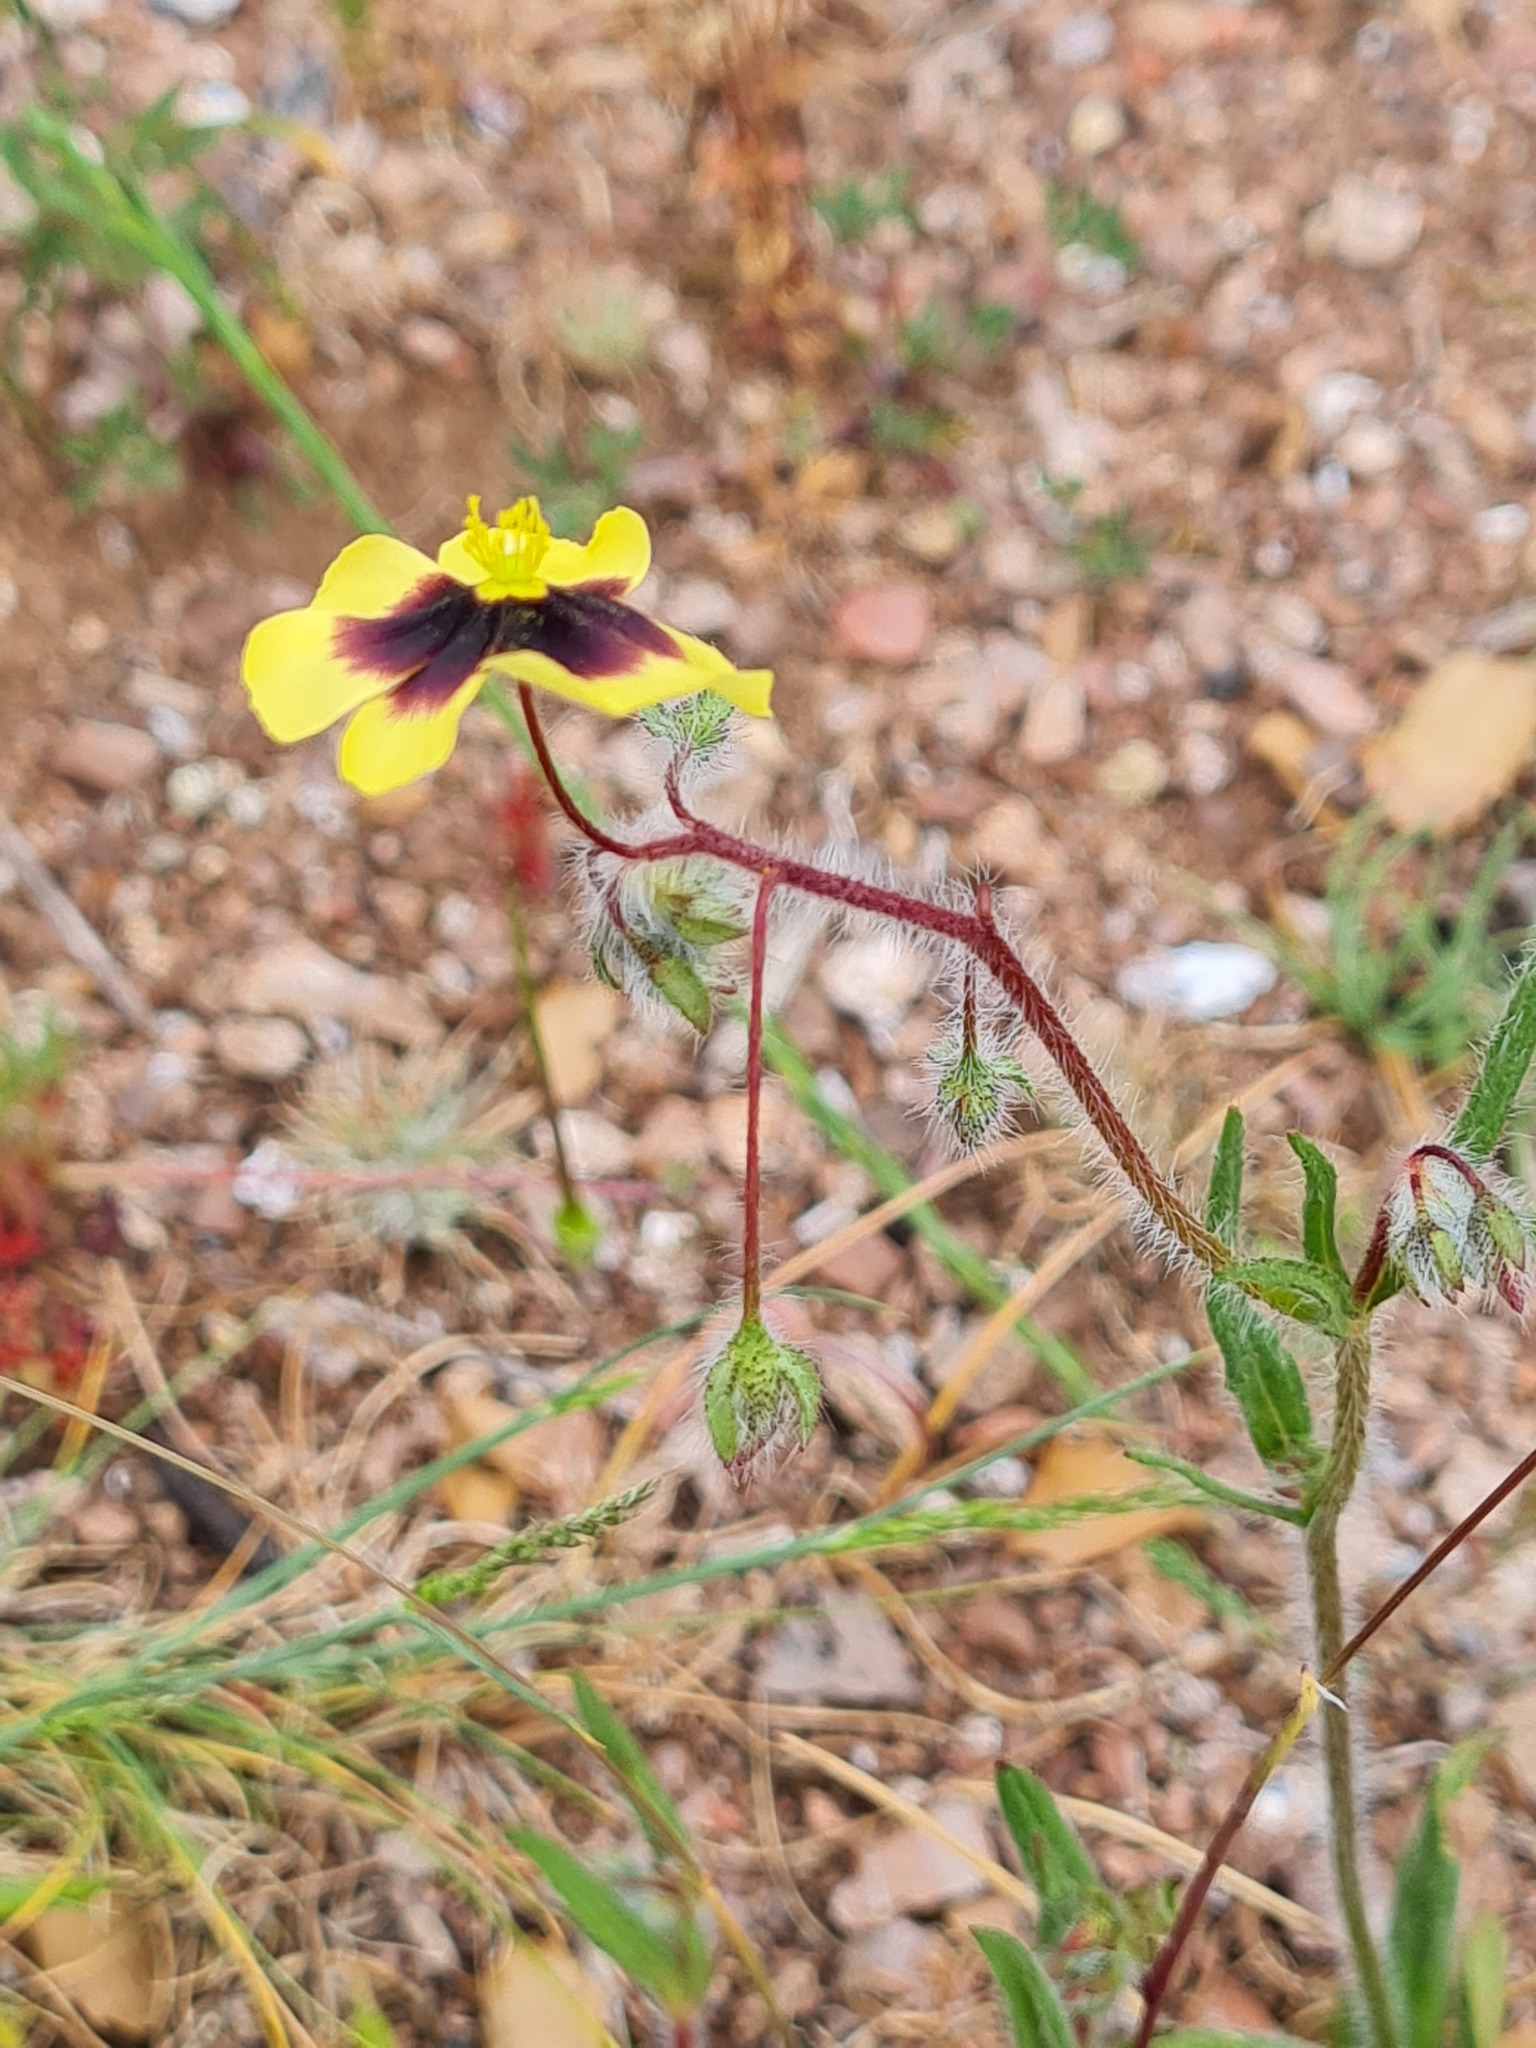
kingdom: Plantae
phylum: Tracheophyta
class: Magnoliopsida
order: Malvales
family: Cistaceae
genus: Tuberaria
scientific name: Tuberaria guttata
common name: Spotted rock-rose
